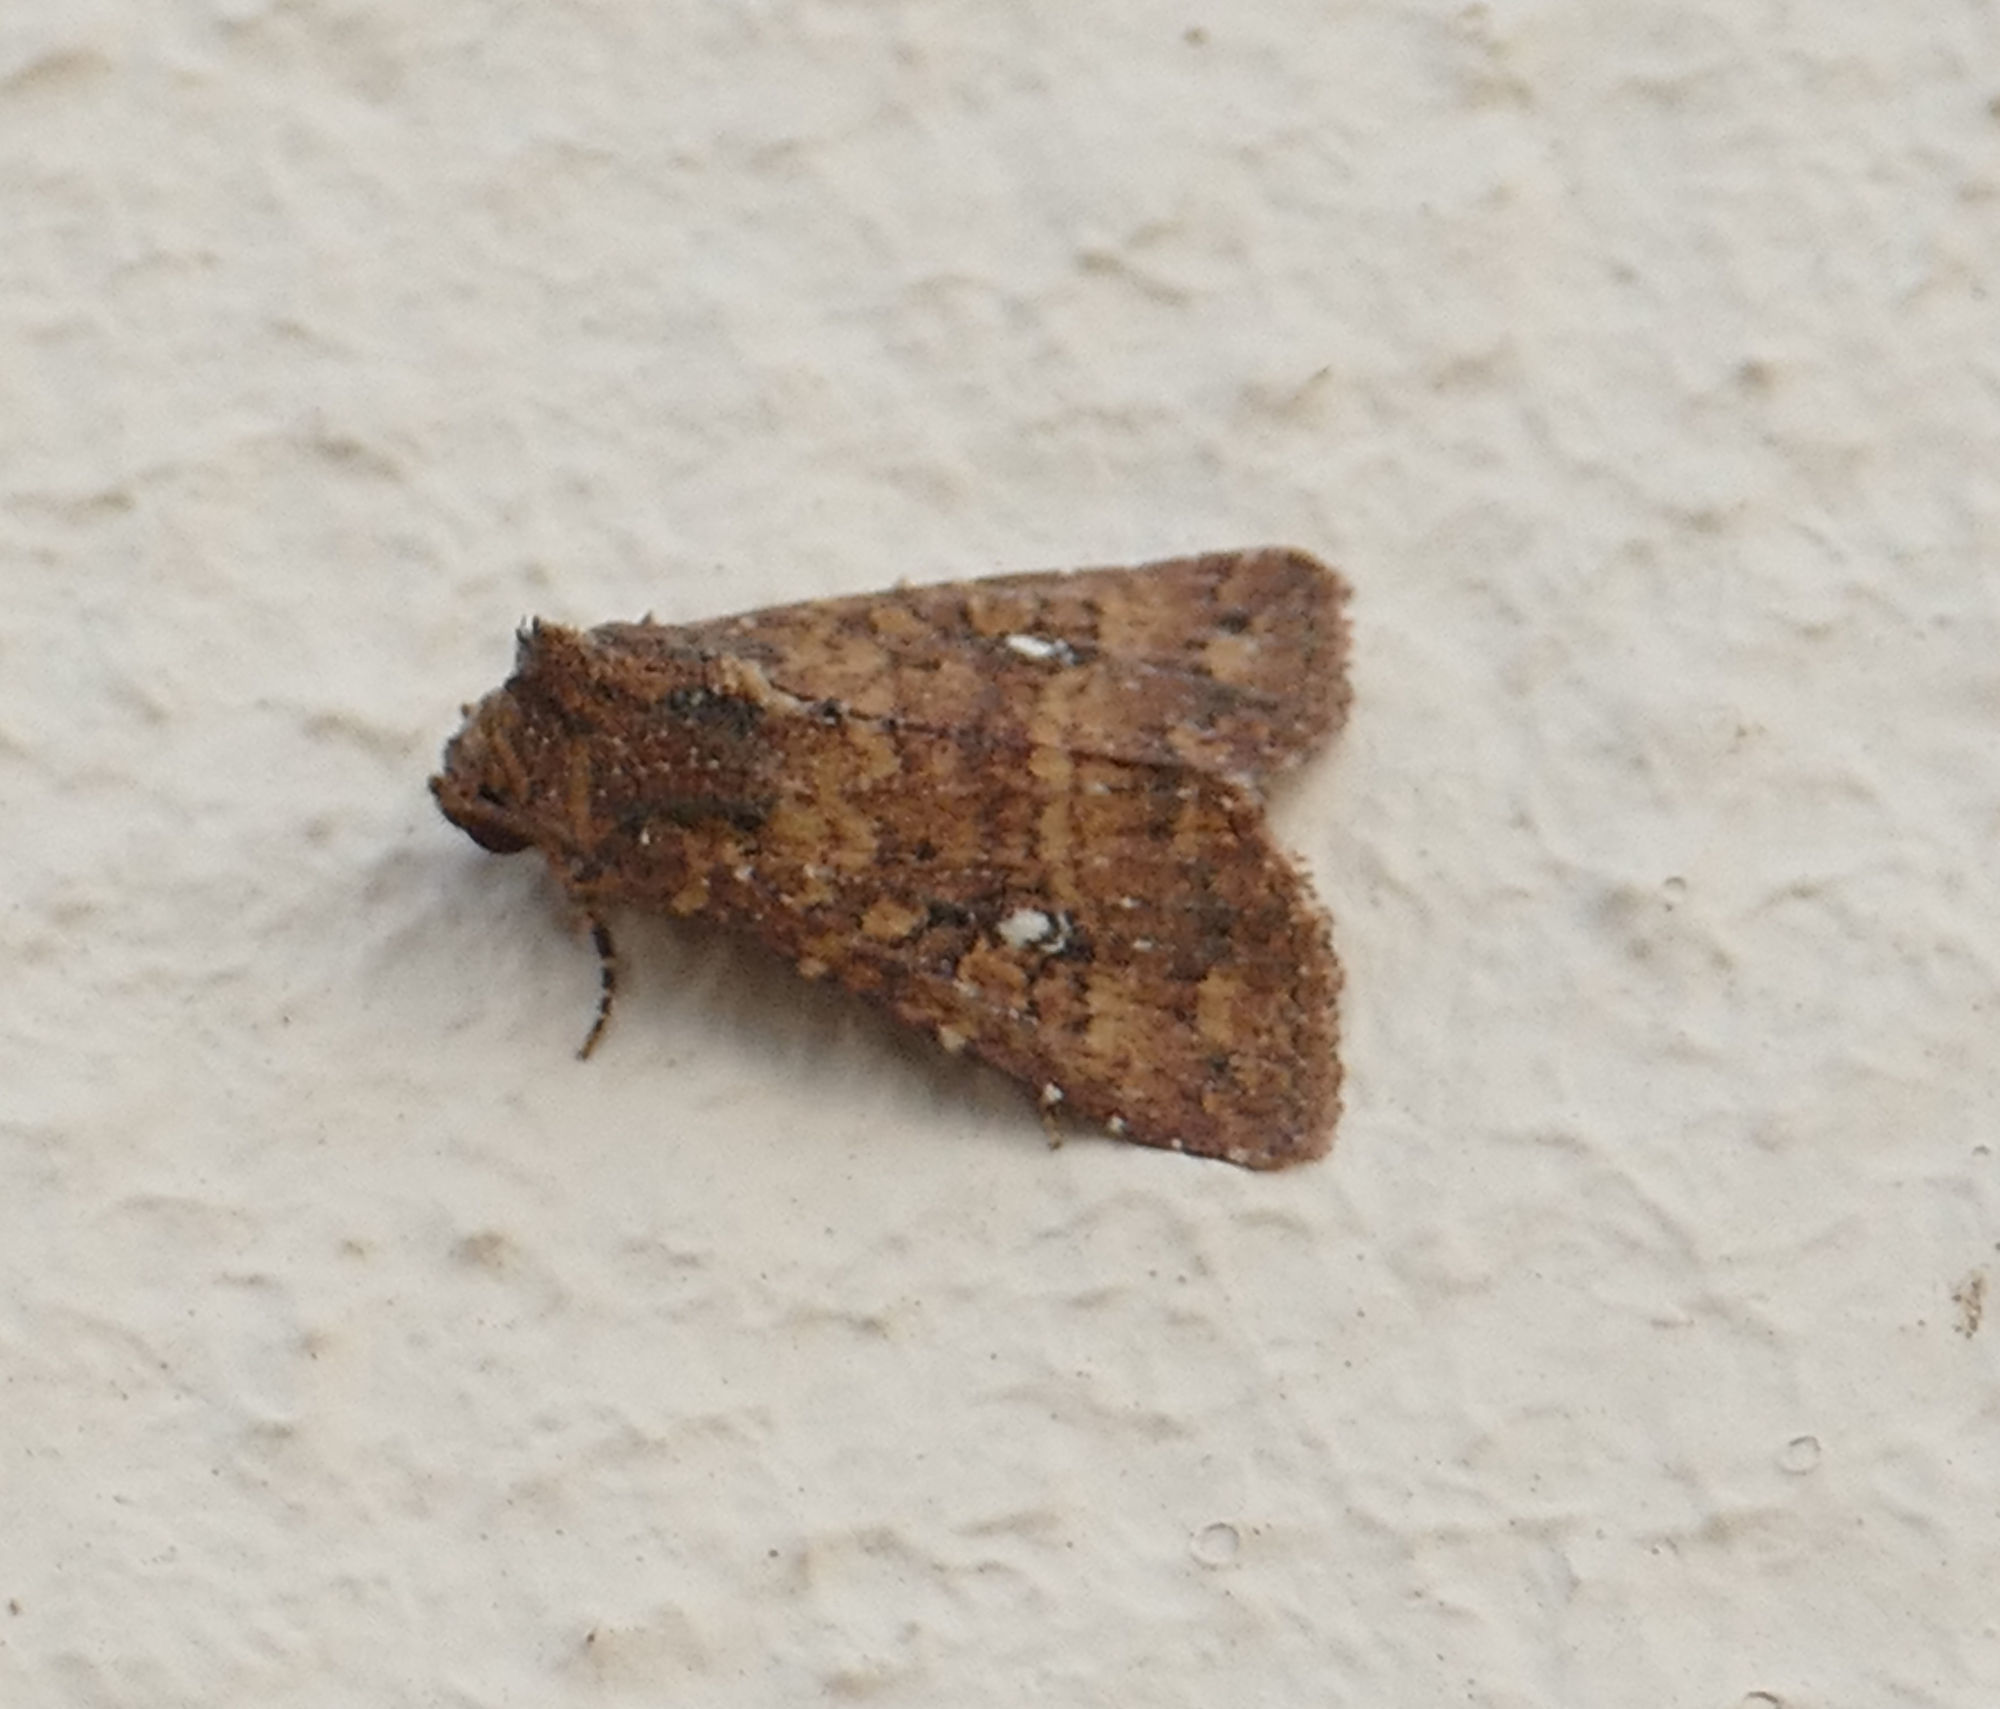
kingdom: Animalia
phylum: Arthropoda
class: Insecta
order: Lepidoptera
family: Noctuidae
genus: Condica
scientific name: Condica mobilis
